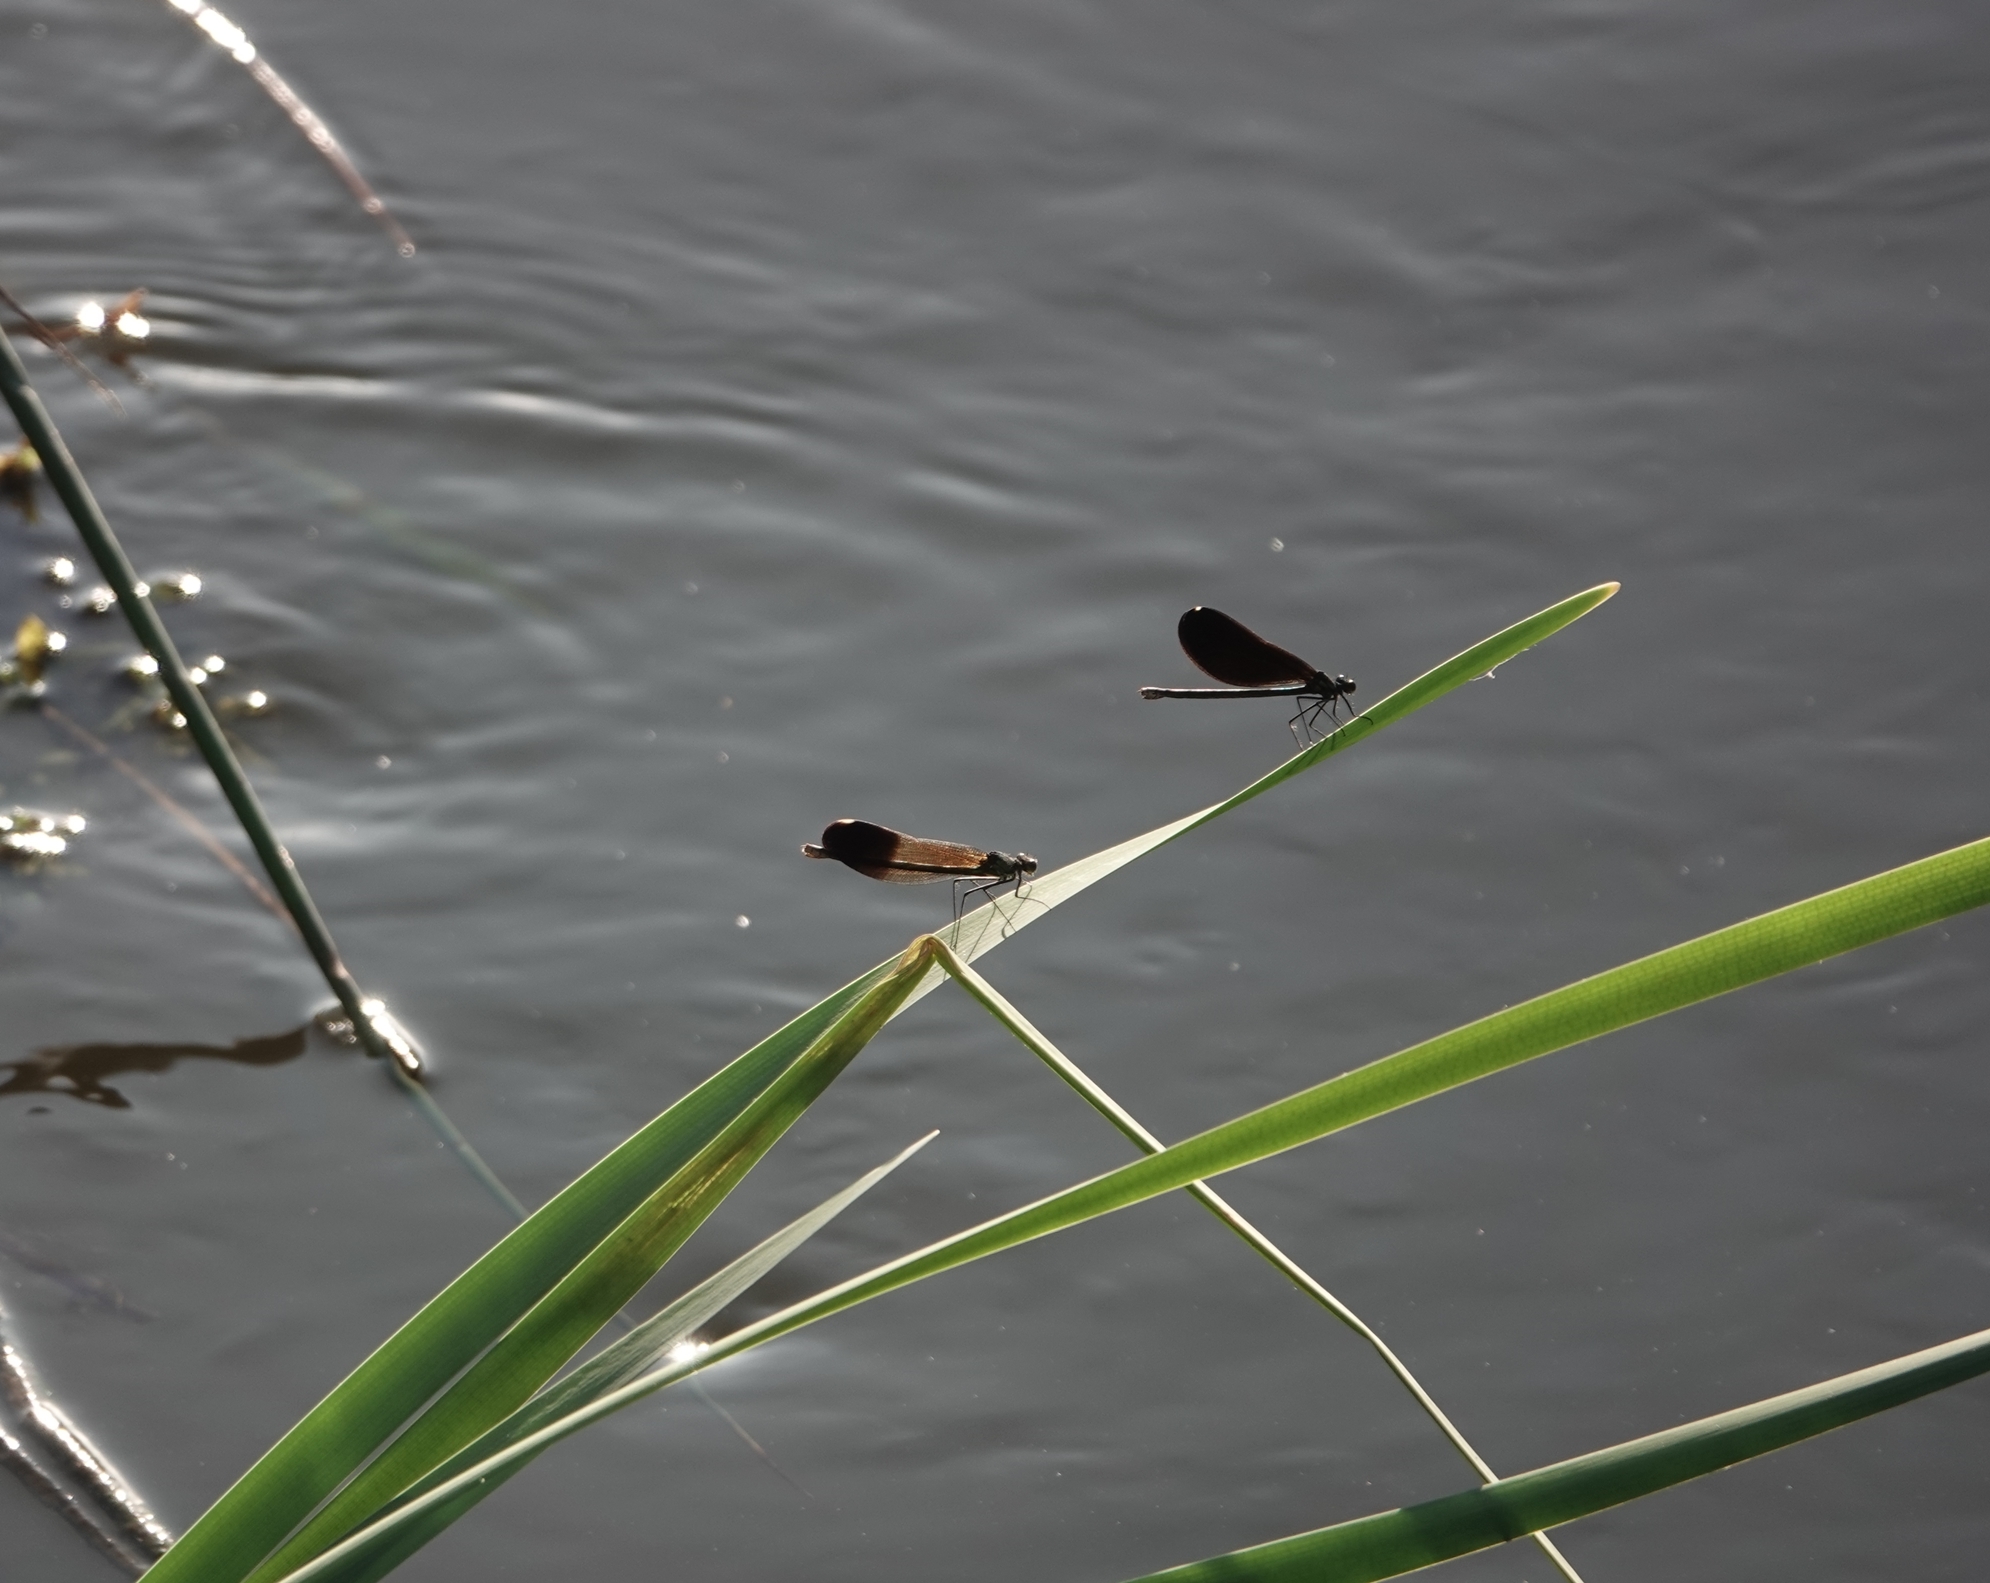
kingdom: Animalia
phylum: Arthropoda
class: Insecta
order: Odonata
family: Calopterygidae
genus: Calopteryx
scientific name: Calopteryx aequabilis
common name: River jewelwing
